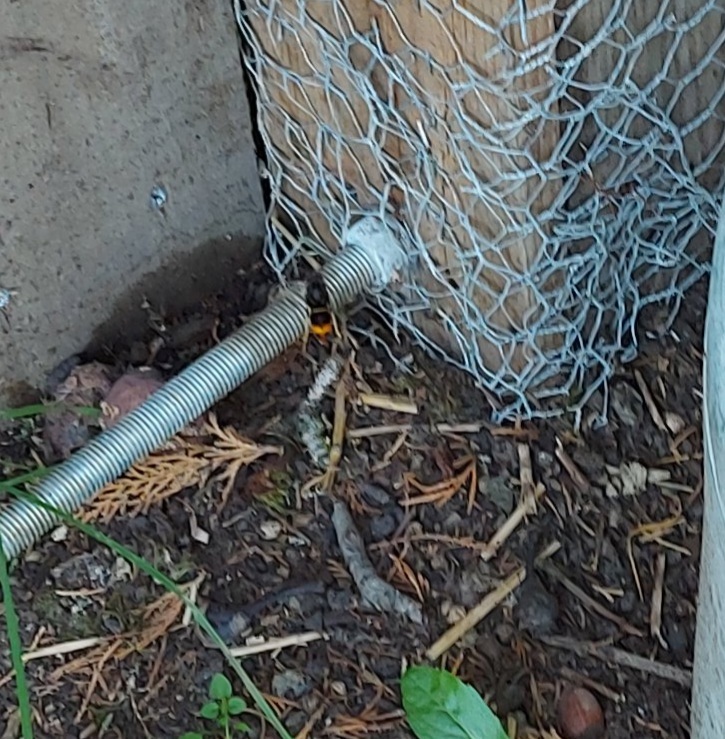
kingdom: Animalia
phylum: Arthropoda
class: Insecta
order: Hymenoptera
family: Vespidae
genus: Vespa
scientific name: Vespa velutina
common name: Asian hornet
